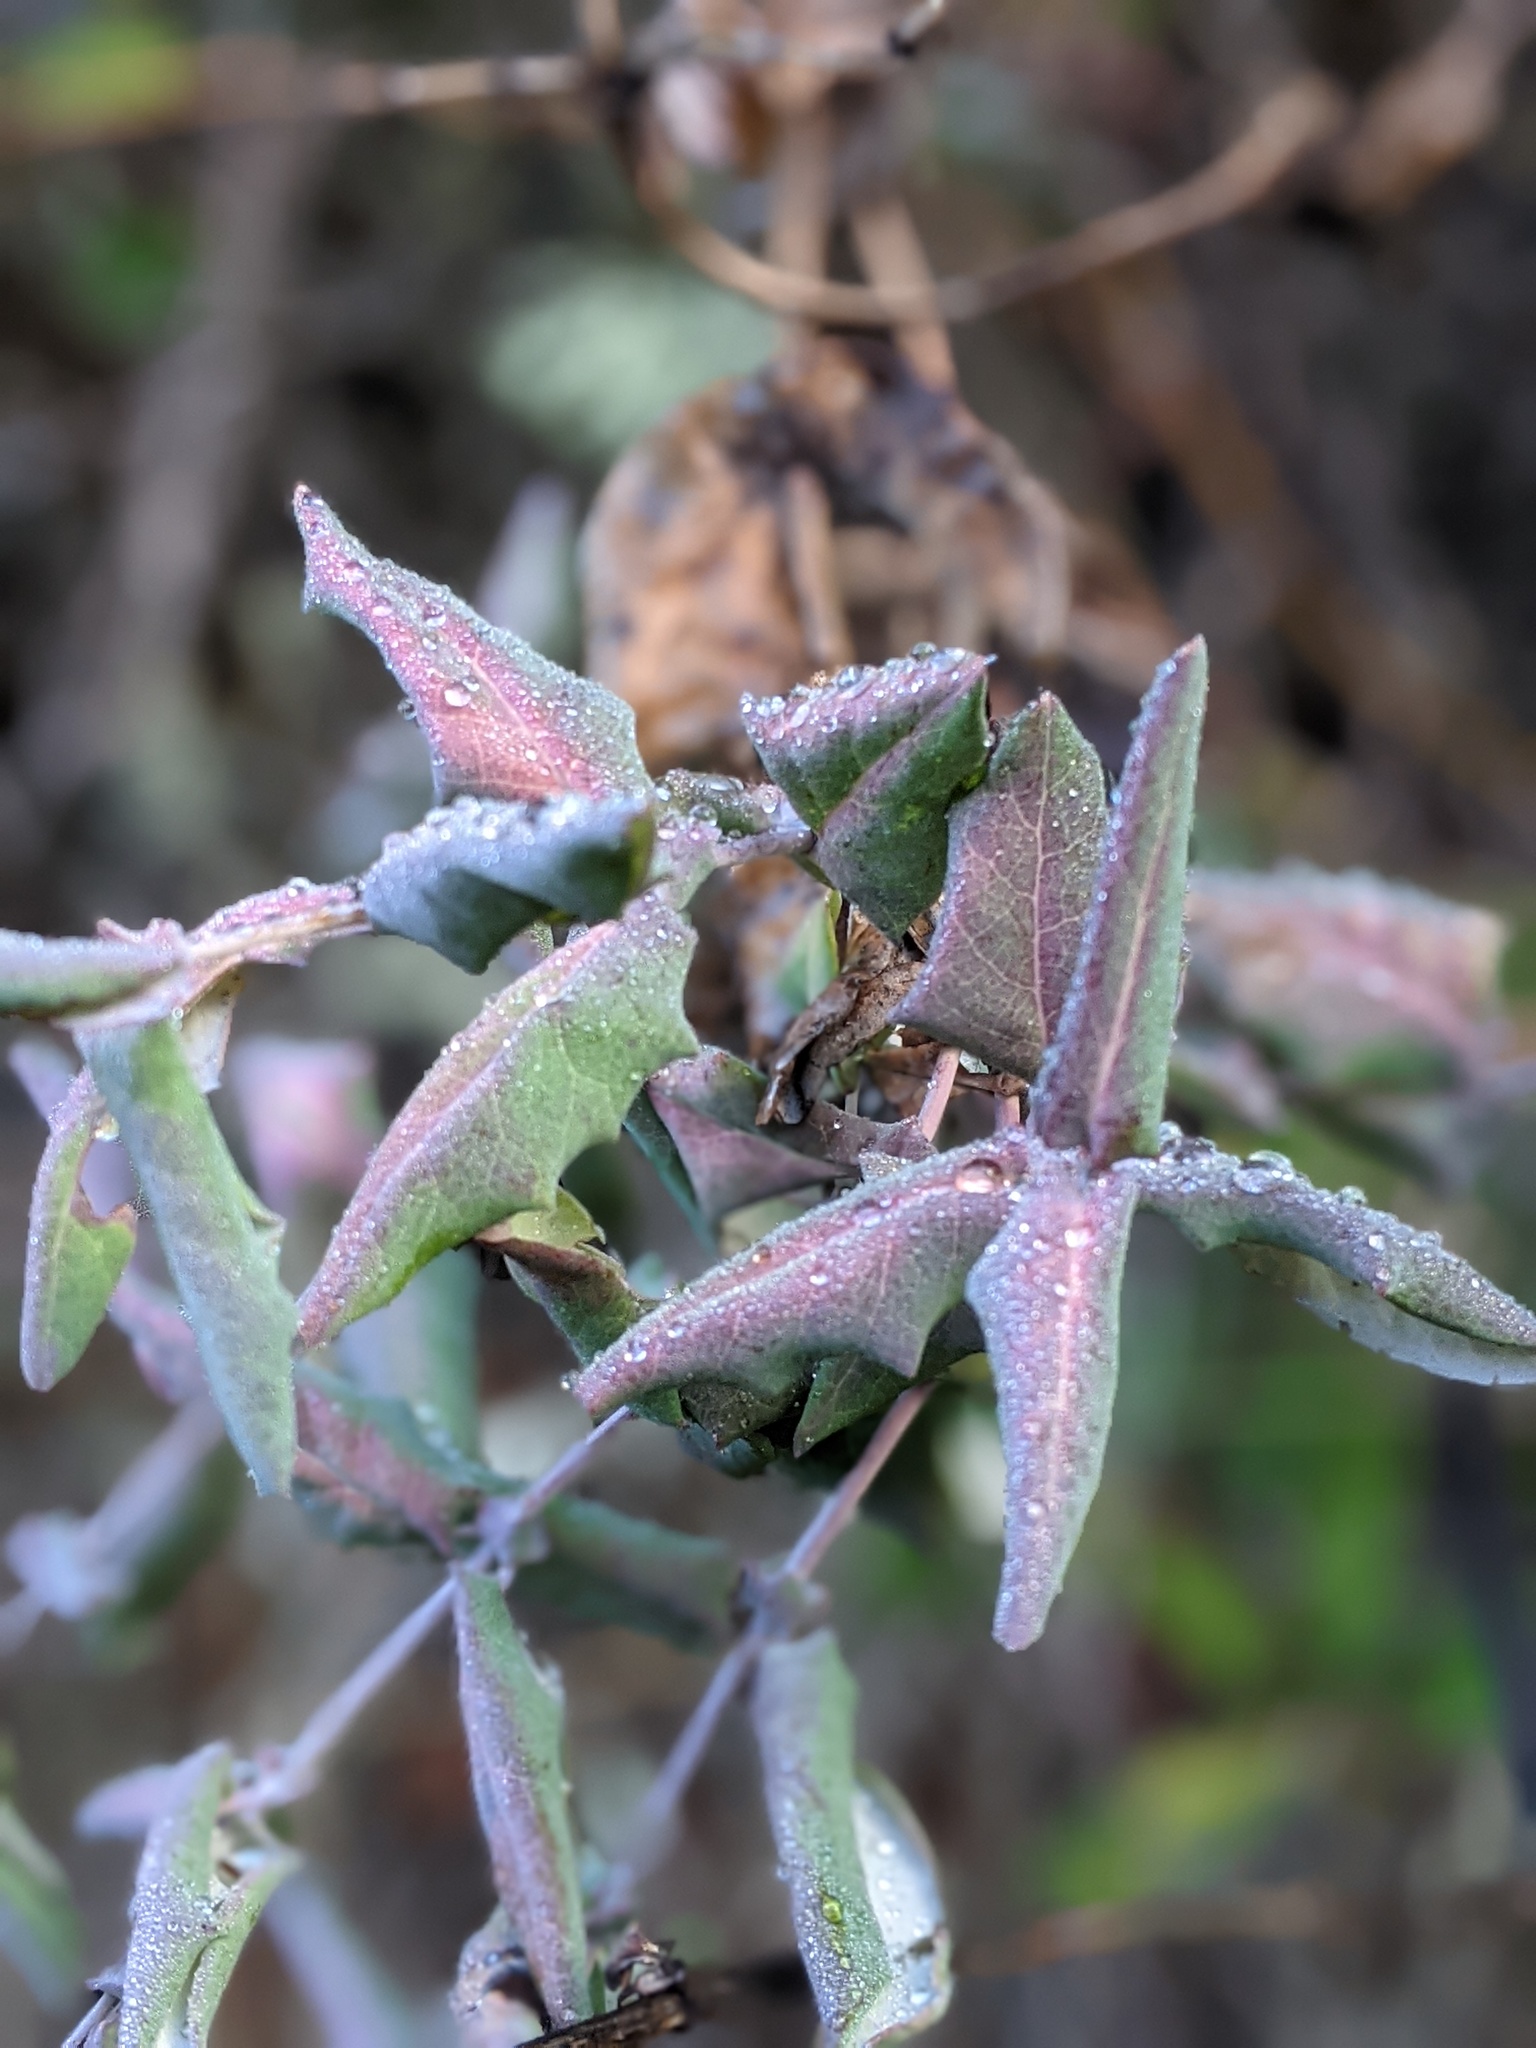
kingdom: Plantae
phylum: Tracheophyta
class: Magnoliopsida
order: Dipsacales
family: Caprifoliaceae
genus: Lonicera
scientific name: Lonicera hispidula
